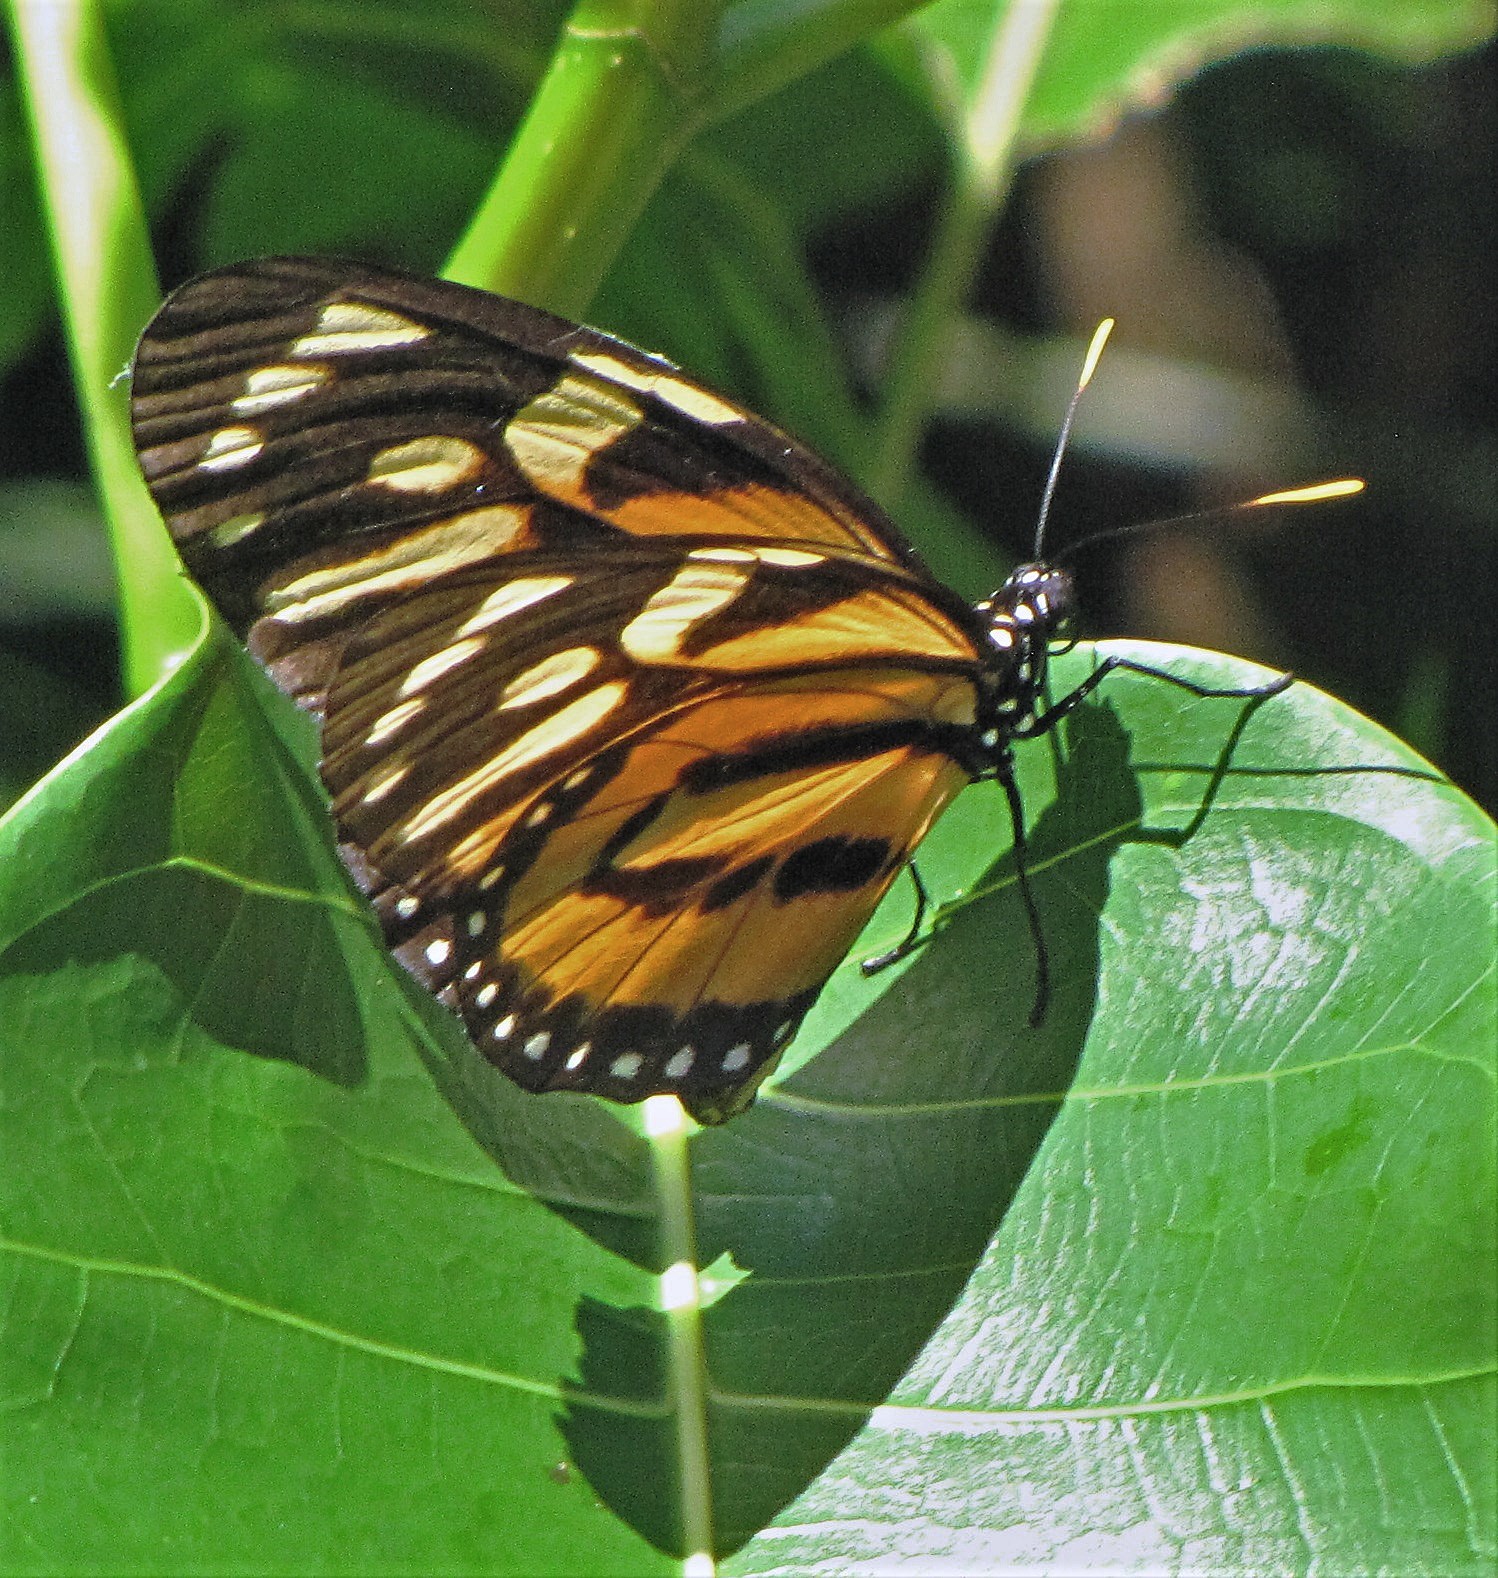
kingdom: Animalia
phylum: Arthropoda
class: Insecta
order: Lepidoptera
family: Nymphalidae
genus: Lycorea
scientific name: Lycorea cleobaea
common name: Tiger mimic-queen
